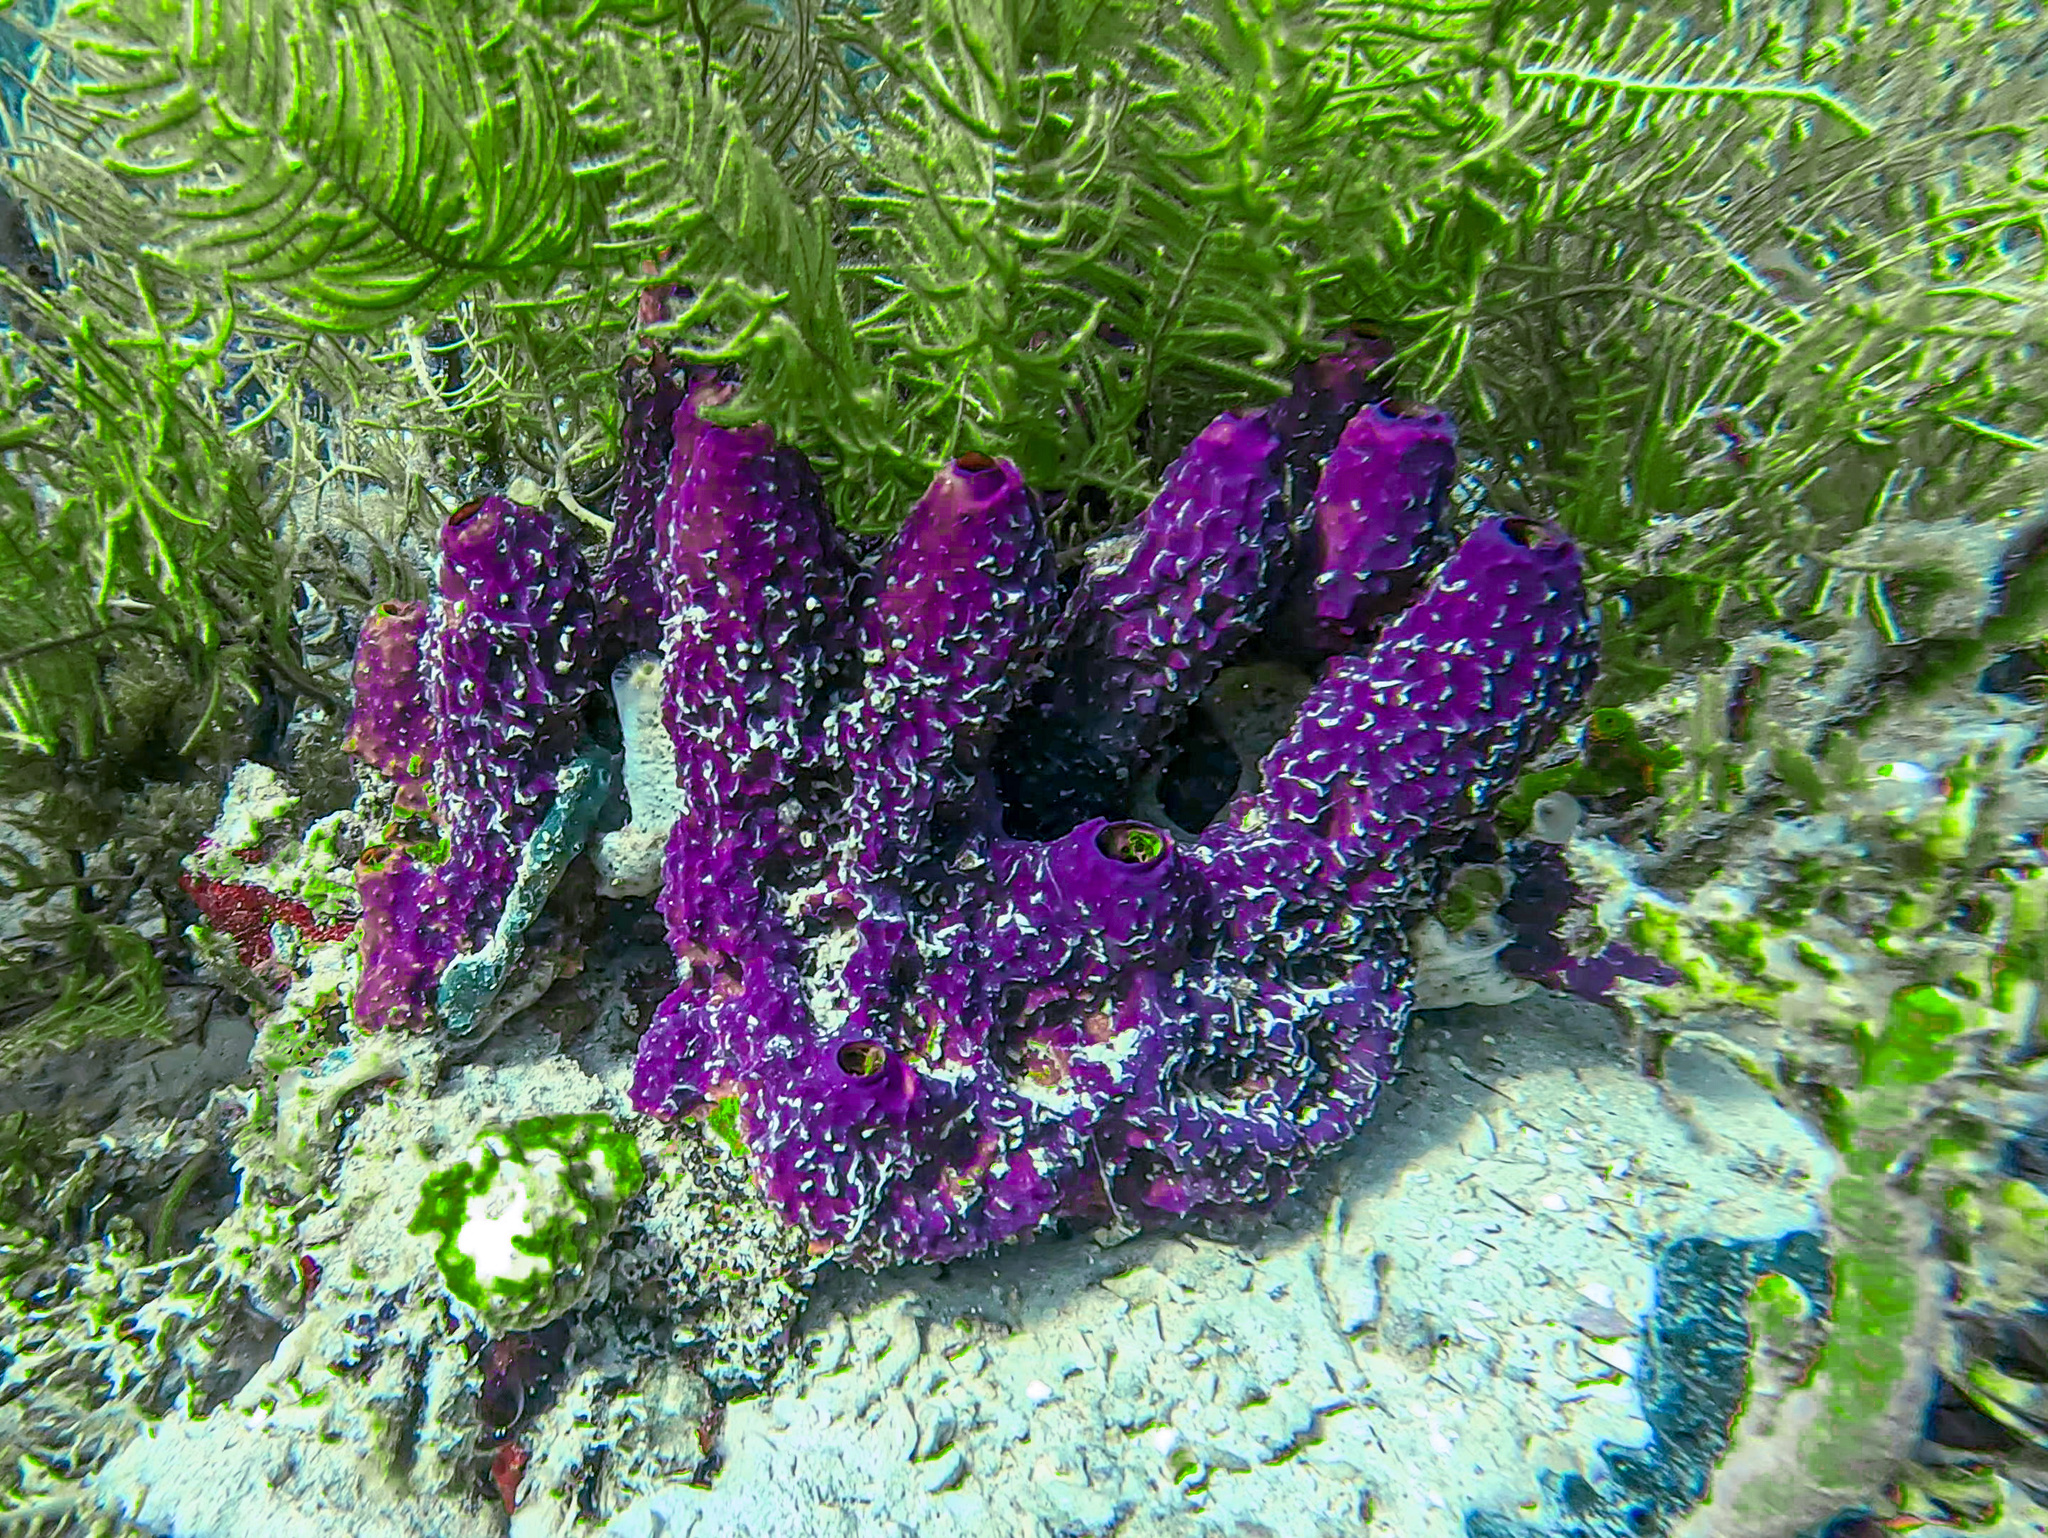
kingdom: Animalia
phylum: Porifera
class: Demospongiae
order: Verongiida
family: Aplysinidae
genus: Aiolochroia
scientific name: Aiolochroia crassa
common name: Branching tube sponge
